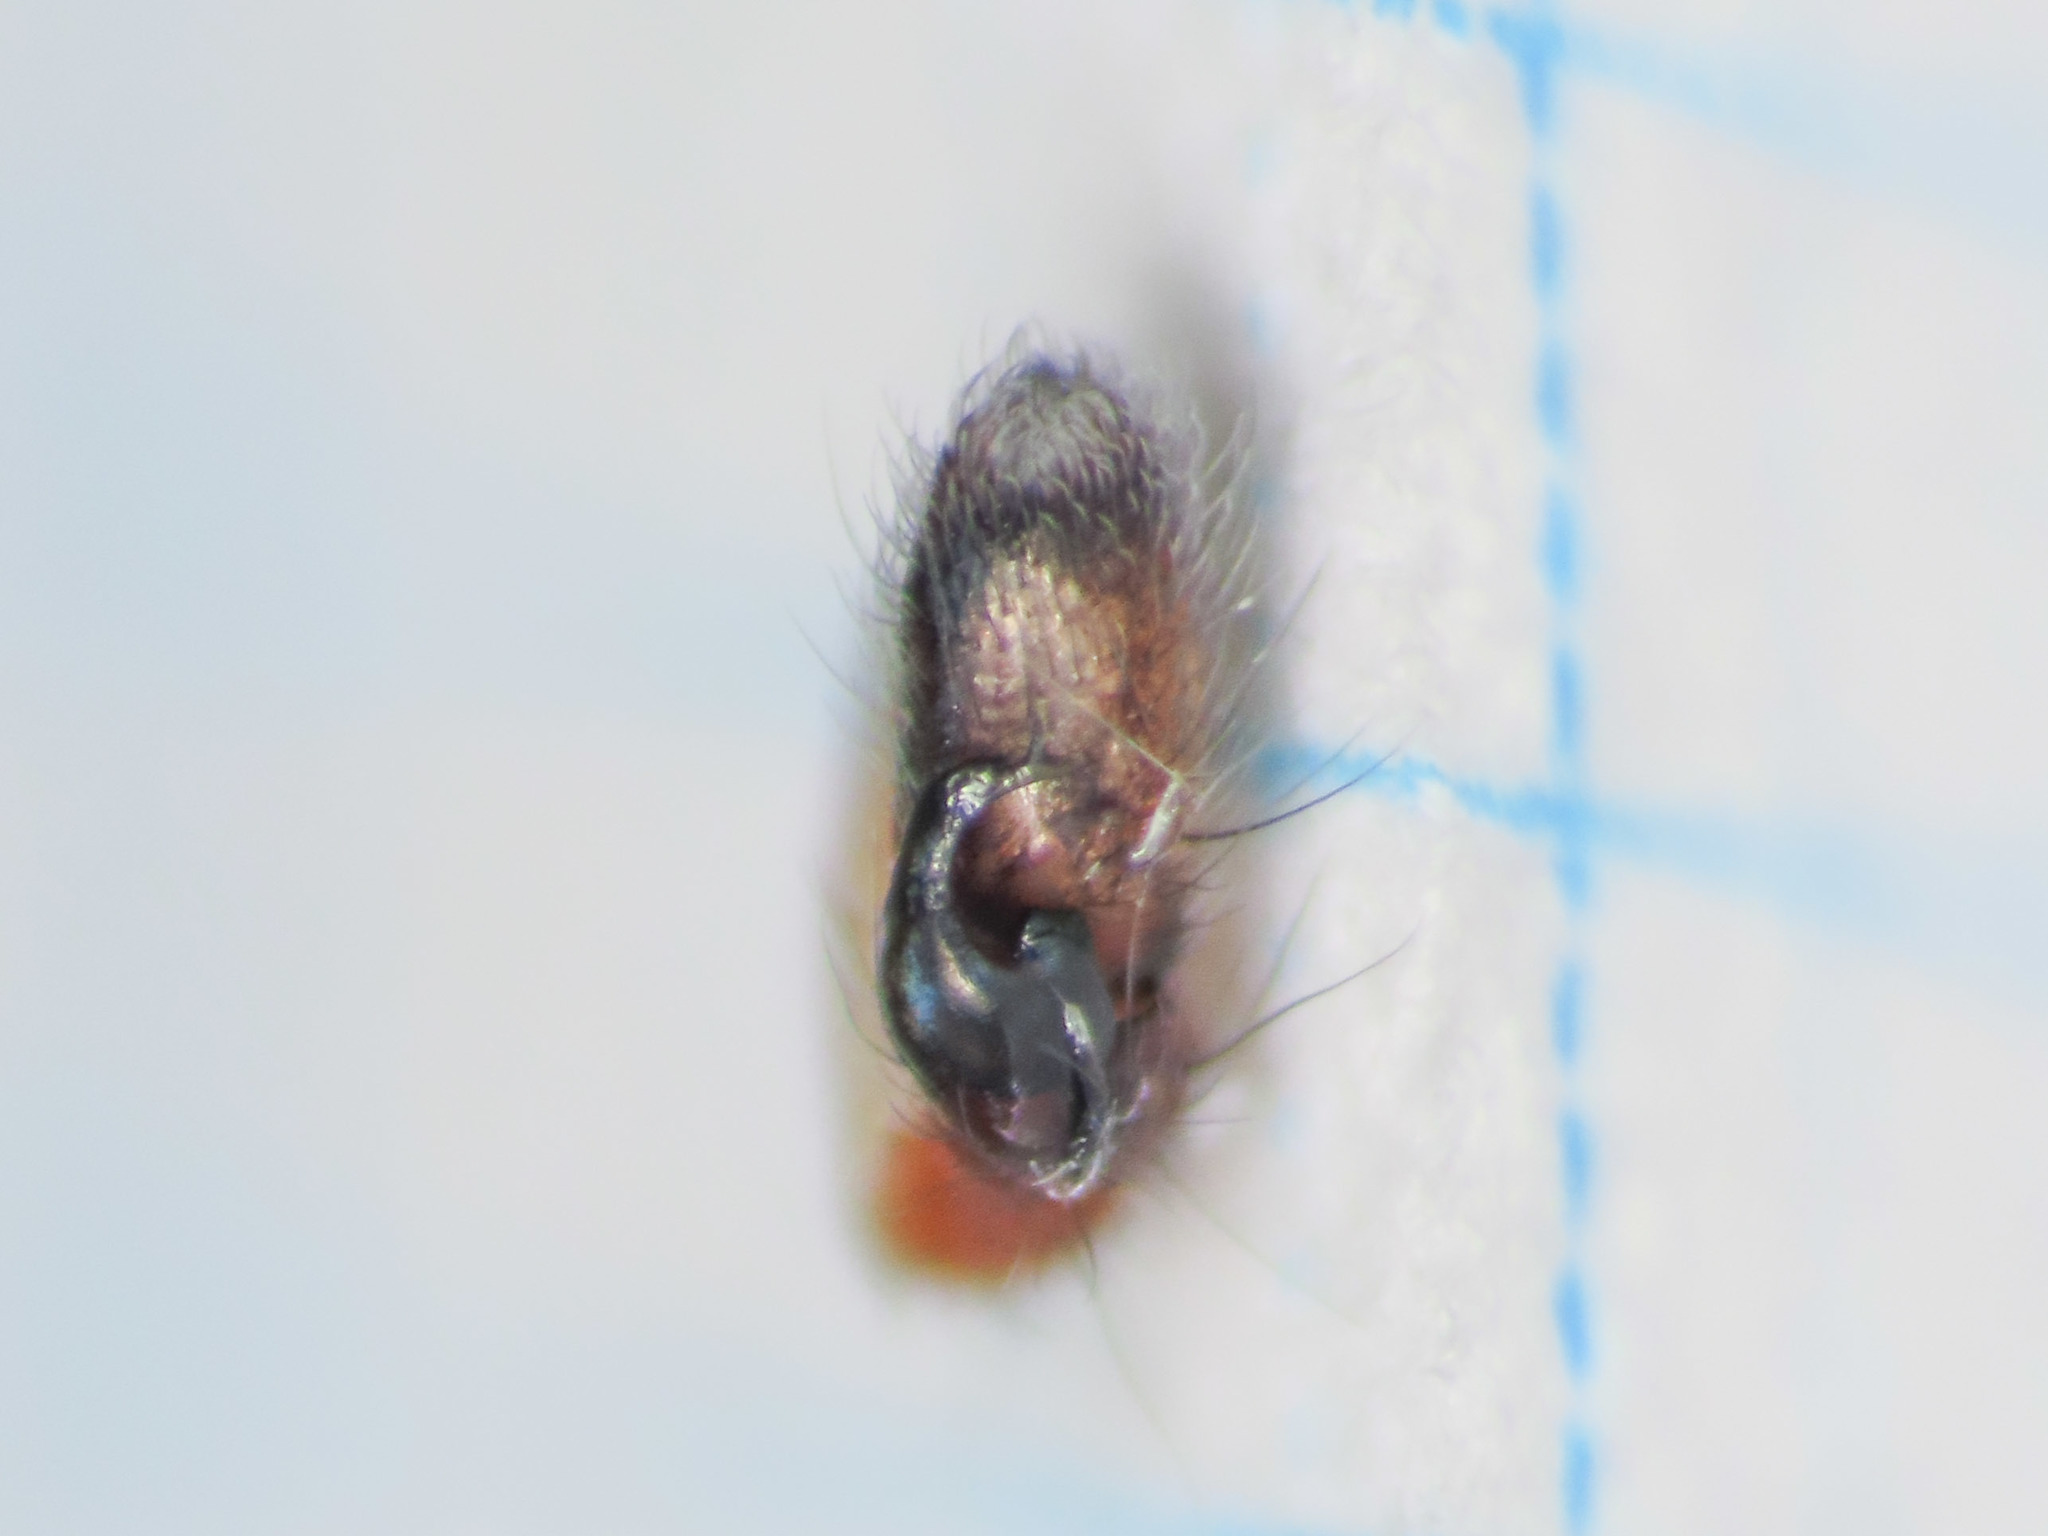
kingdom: Animalia
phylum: Arthropoda
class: Arachnida
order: Araneae
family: Clubionidae
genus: Clubiona
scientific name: Clubiona brevipes
